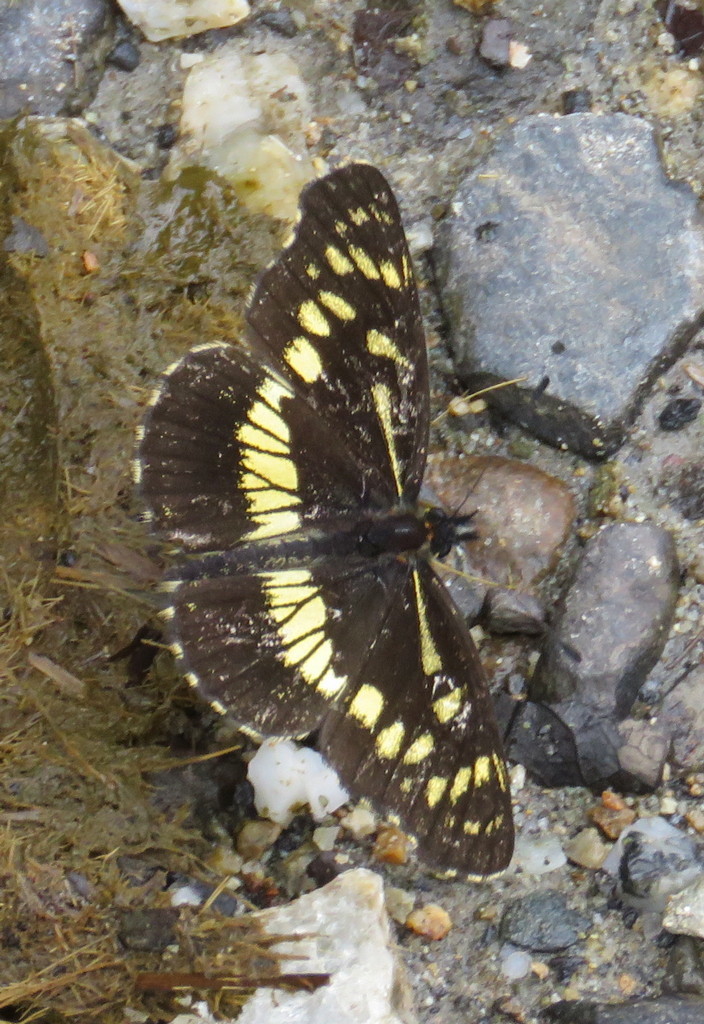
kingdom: Animalia
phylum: Arthropoda
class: Insecta
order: Lepidoptera
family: Nymphalidae
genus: Gnathotriche
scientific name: Gnathotriche exclamationis
